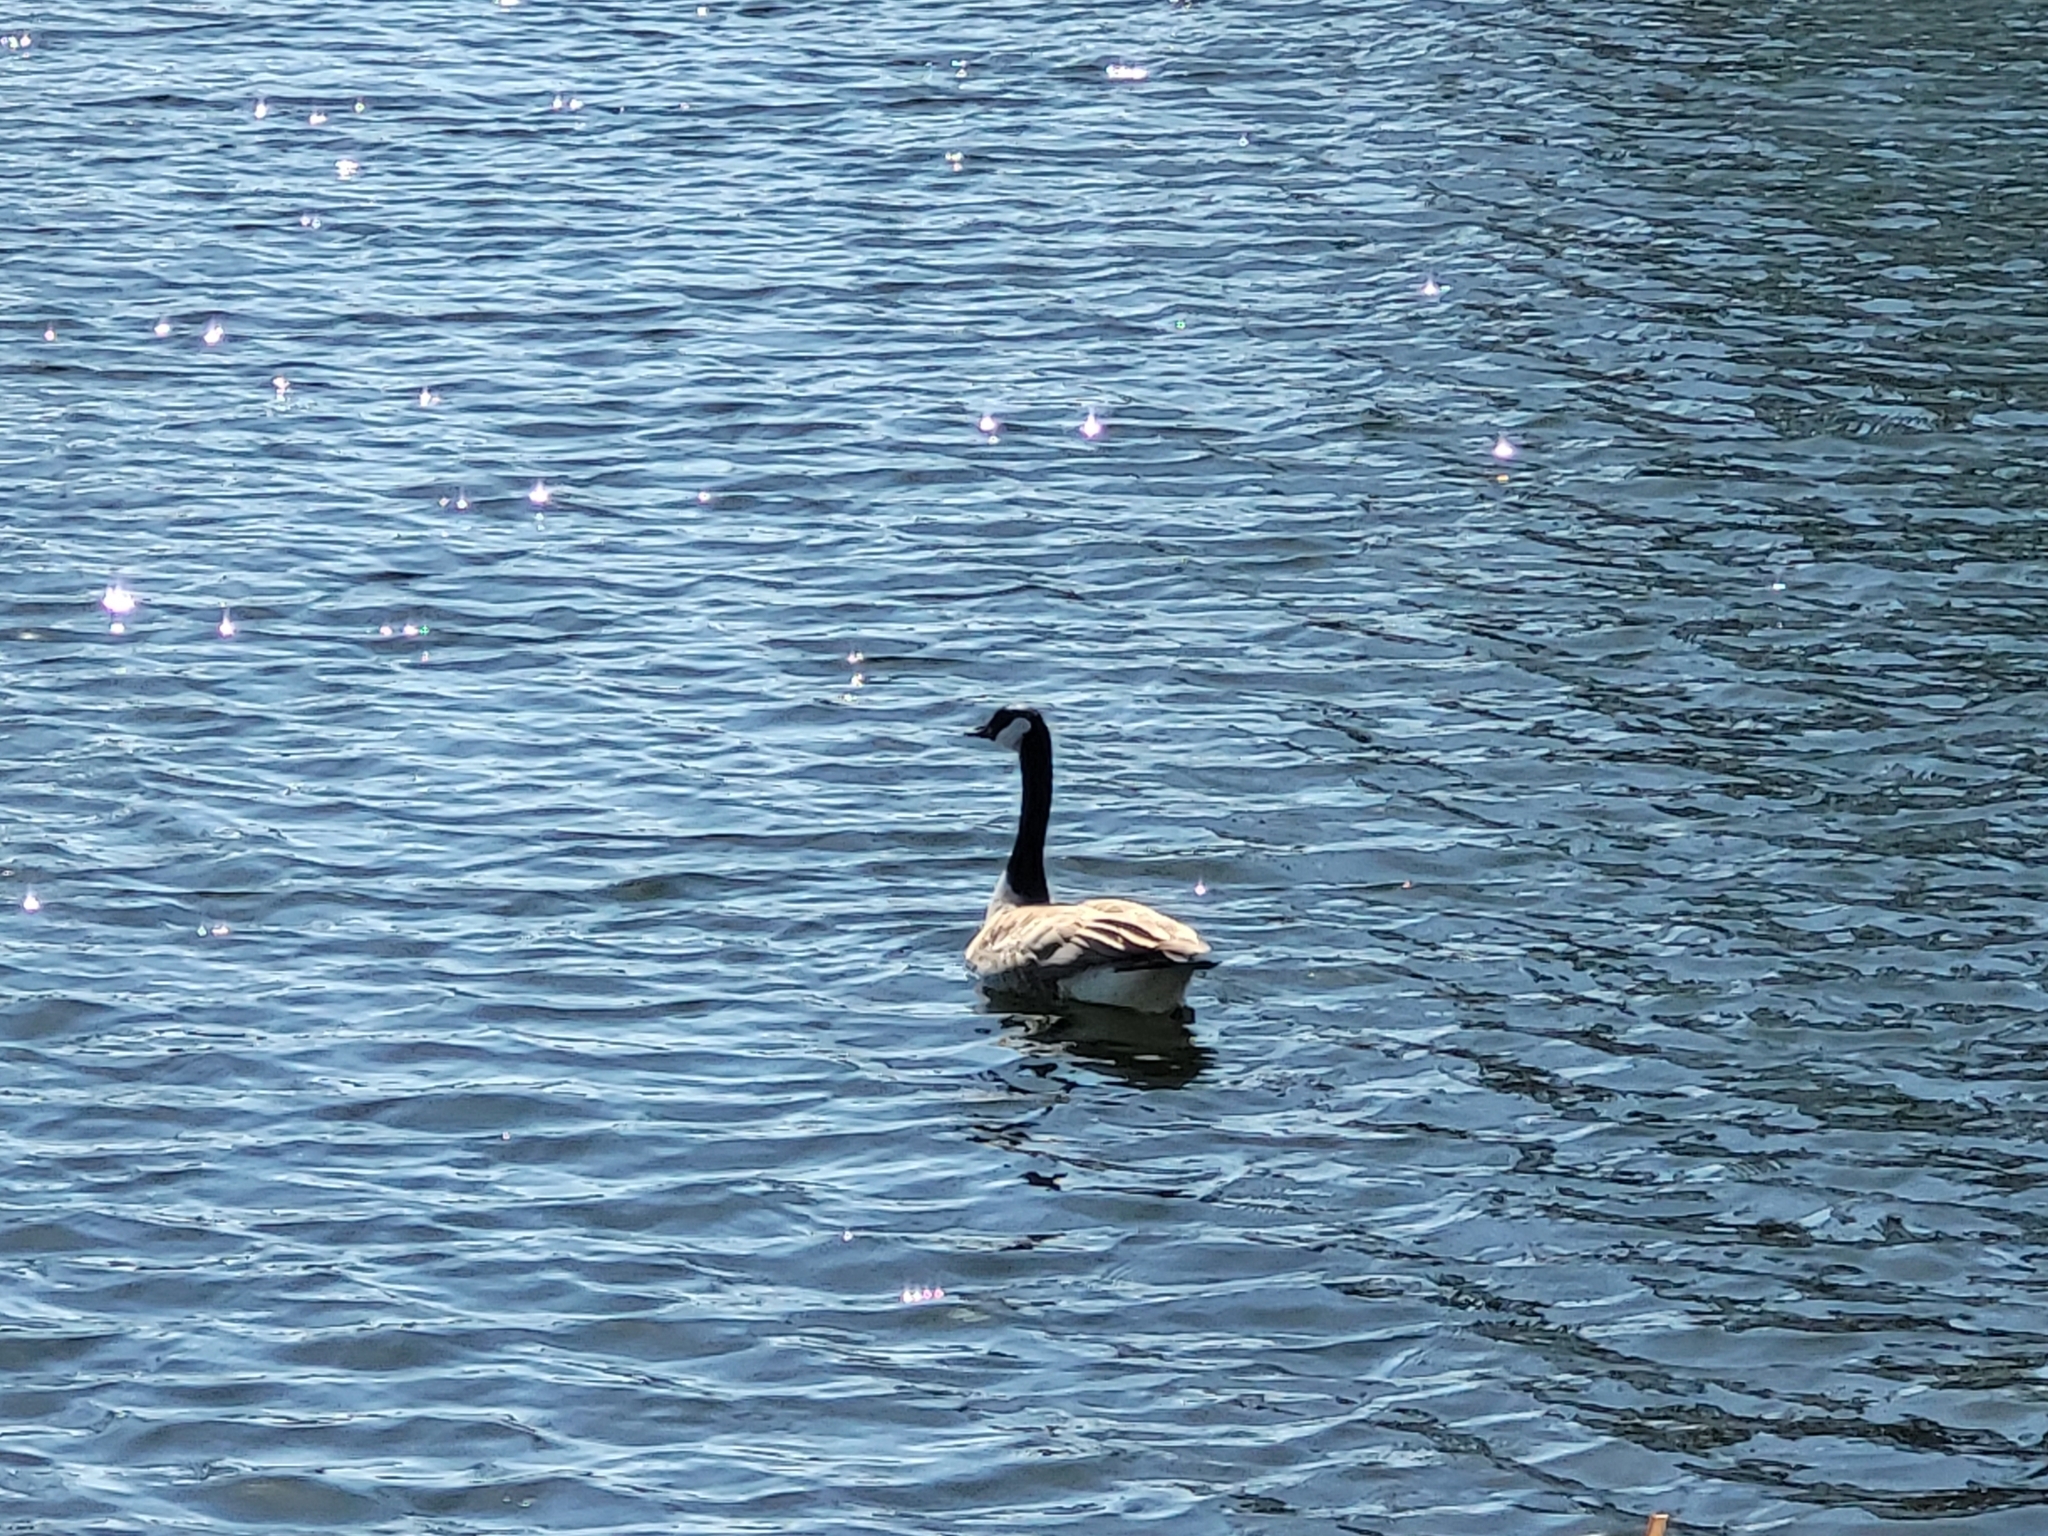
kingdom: Animalia
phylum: Chordata
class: Aves
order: Anseriformes
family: Anatidae
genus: Branta
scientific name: Branta canadensis
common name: Canada goose
